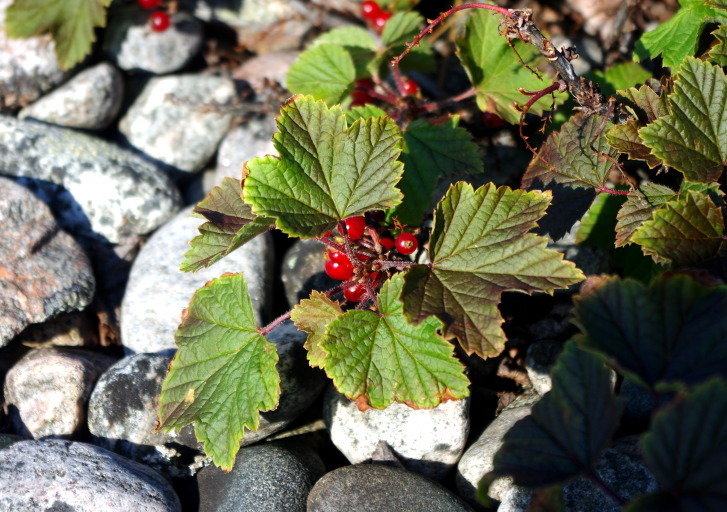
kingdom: Plantae
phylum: Tracheophyta
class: Magnoliopsida
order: Saxifragales
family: Grossulariaceae
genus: Ribes
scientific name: Ribes rubrum
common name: Red currant
